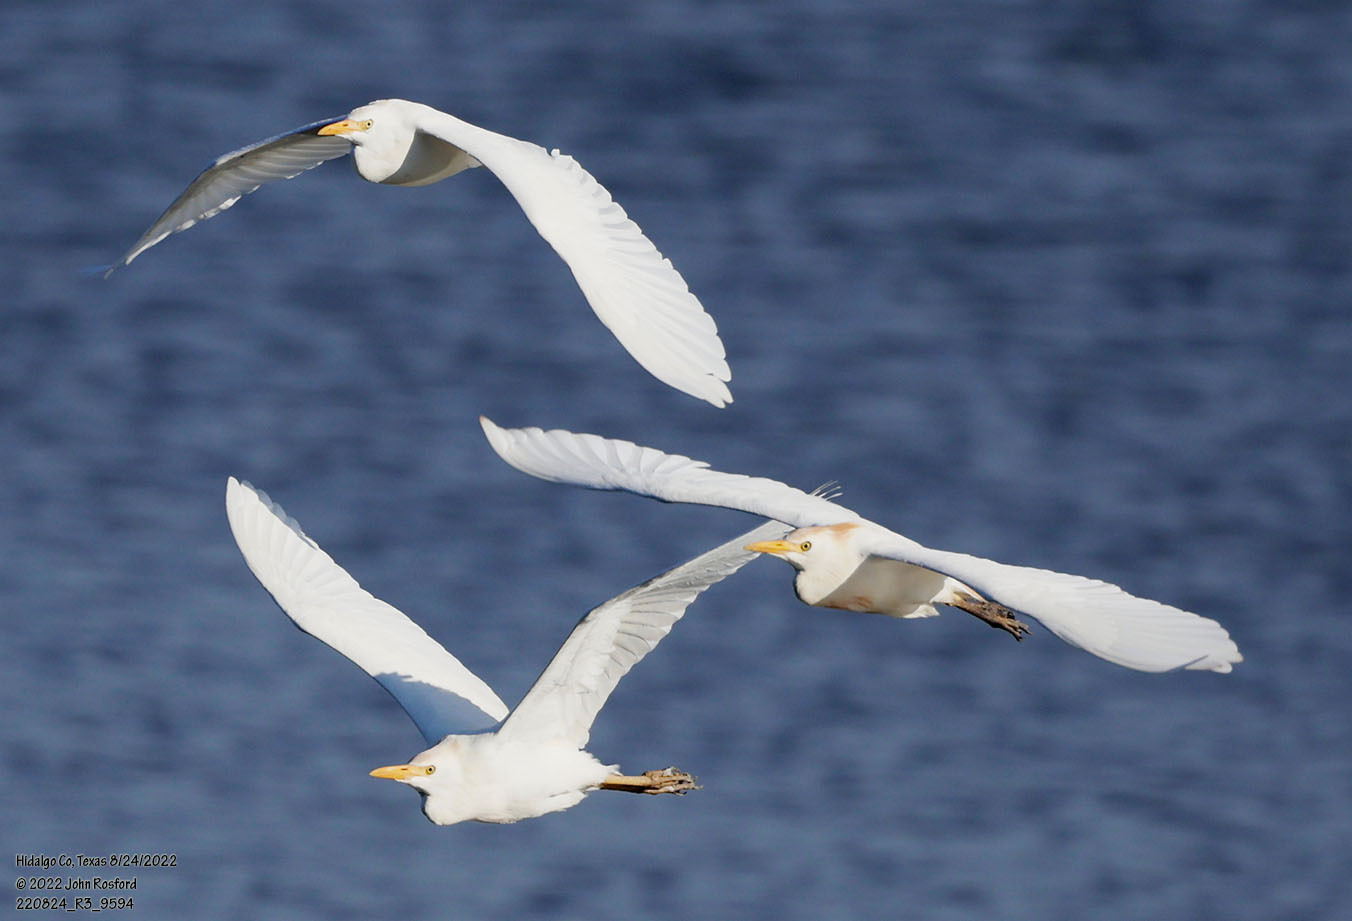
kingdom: Animalia
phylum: Chordata
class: Aves
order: Pelecaniformes
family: Ardeidae
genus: Bubulcus
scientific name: Bubulcus ibis
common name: Cattle egret
